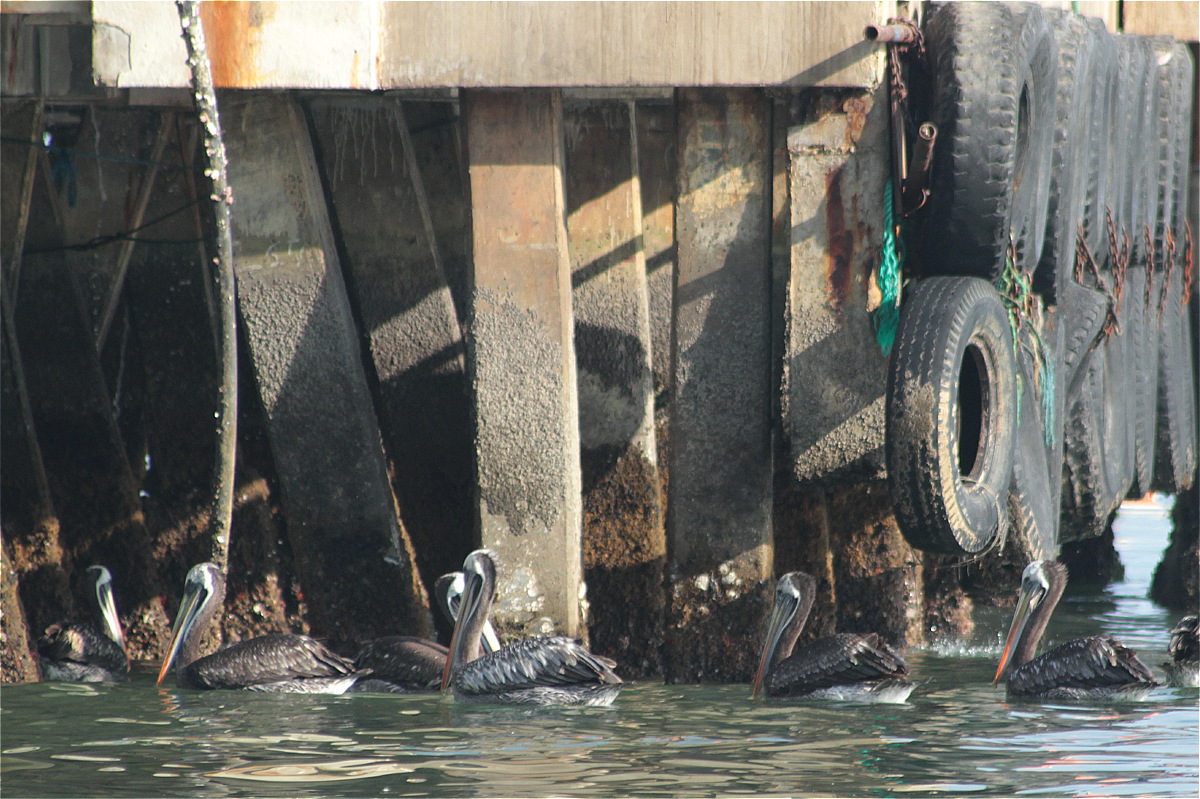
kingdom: Animalia
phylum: Chordata
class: Aves
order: Pelecaniformes
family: Pelecanidae
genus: Pelecanus
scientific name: Pelecanus occidentalis
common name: Brown pelican
